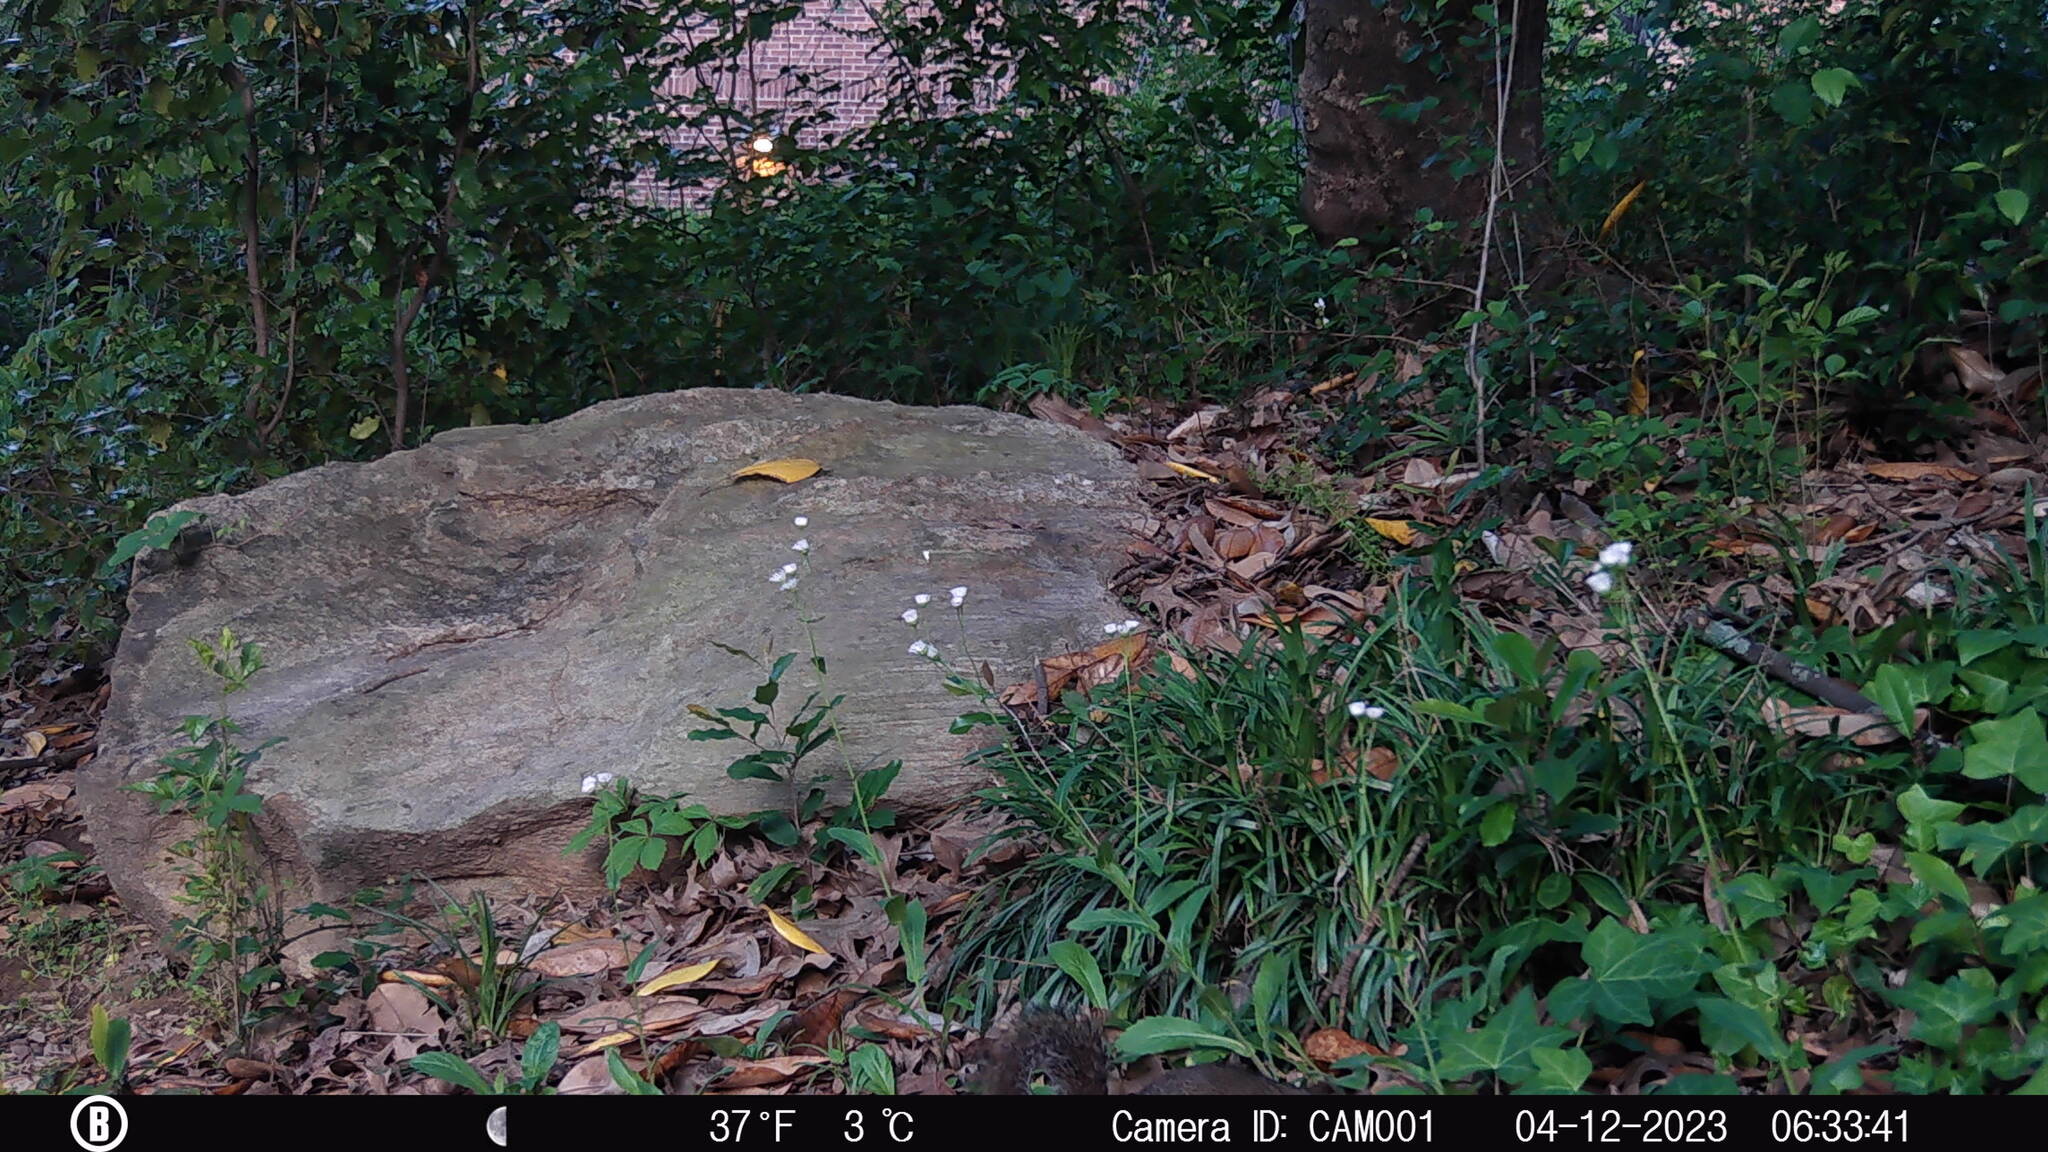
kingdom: Animalia
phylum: Chordata
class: Mammalia
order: Rodentia
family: Sciuridae
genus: Sciurus
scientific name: Sciurus carolinensis
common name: Eastern gray squirrel
